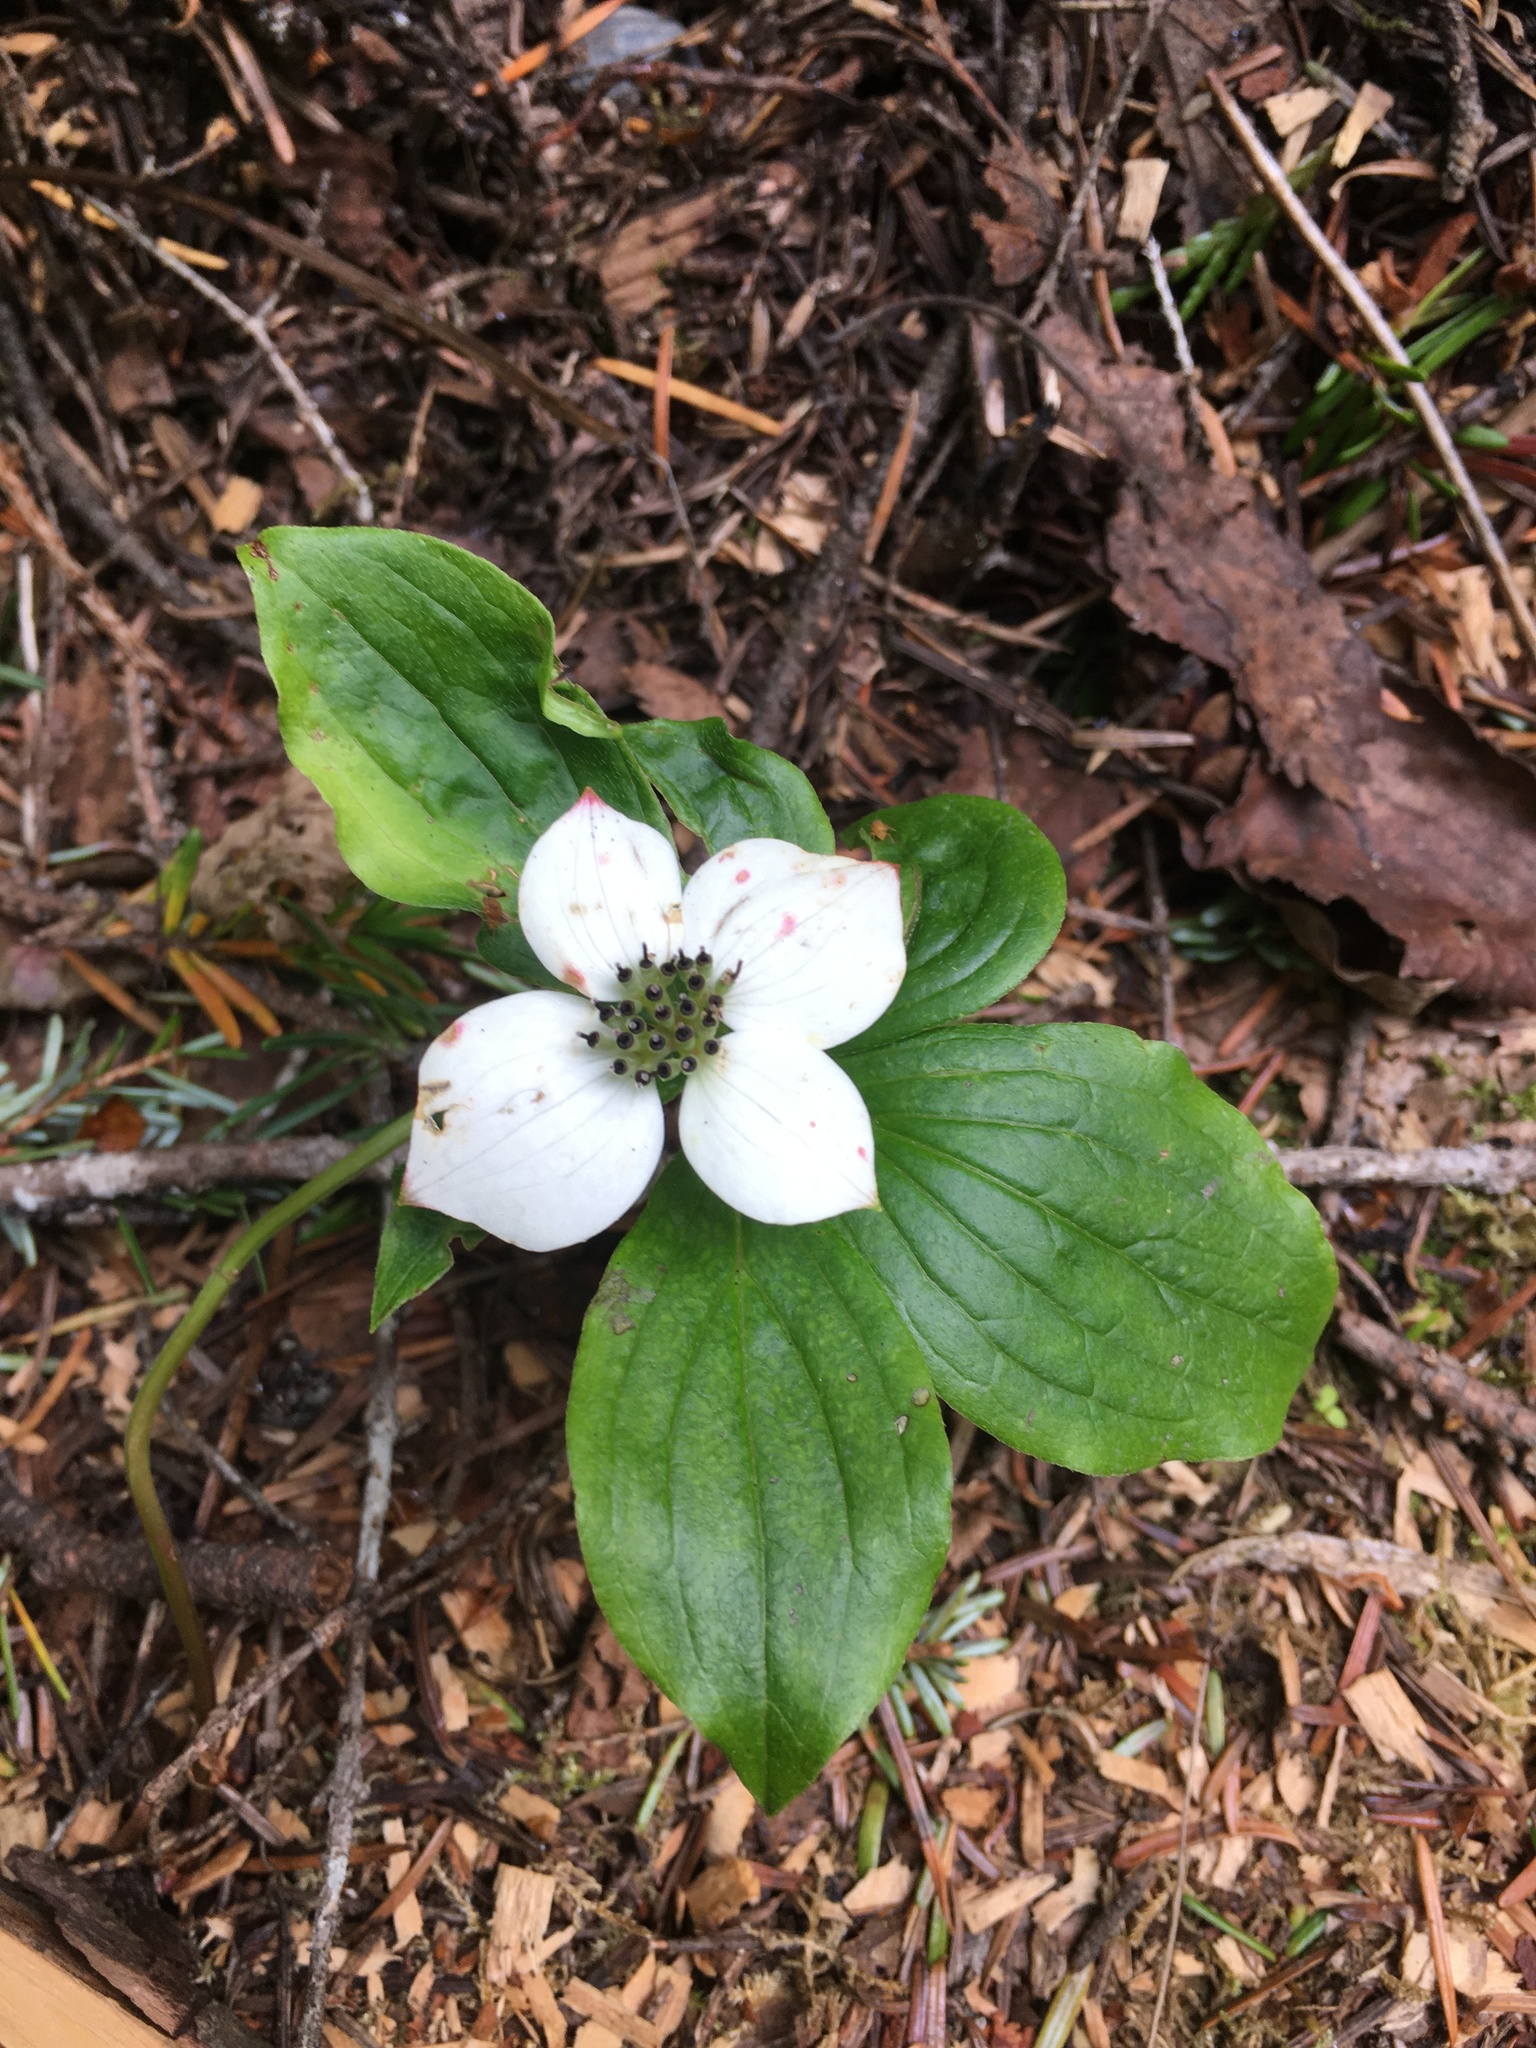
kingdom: Plantae
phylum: Tracheophyta
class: Magnoliopsida
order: Cornales
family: Cornaceae
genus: Cornus
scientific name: Cornus canadensis
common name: Creeping dogwood
